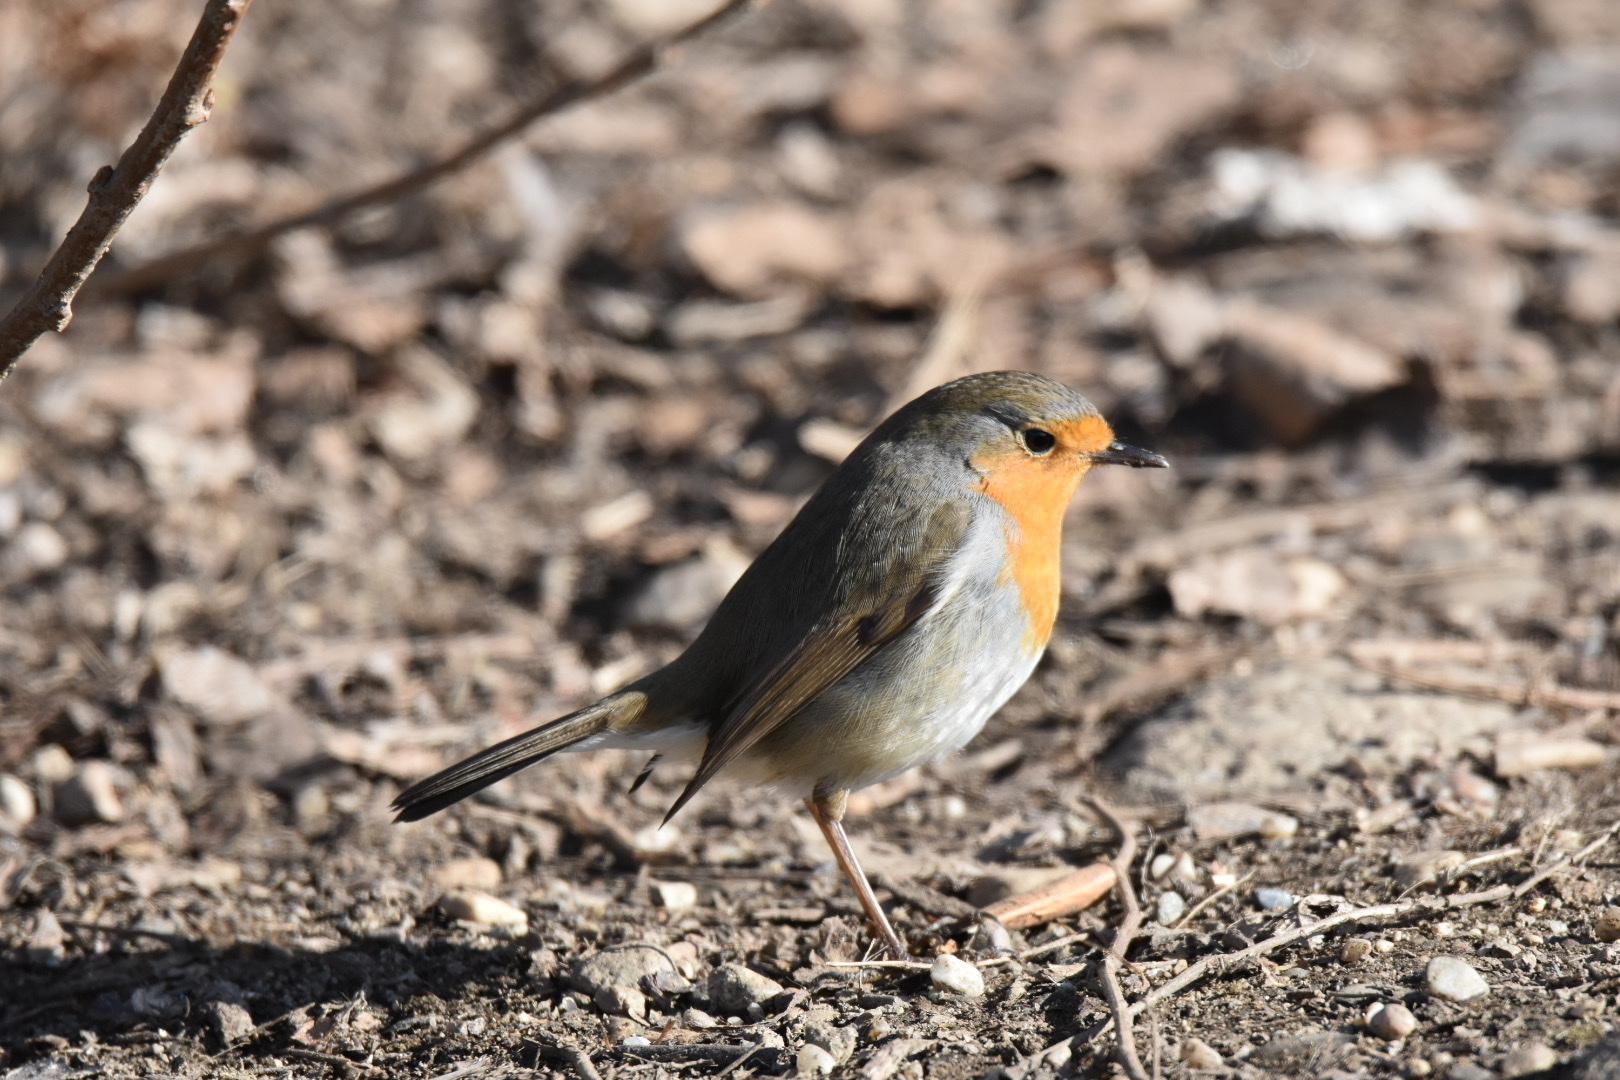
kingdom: Animalia
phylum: Chordata
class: Aves
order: Passeriformes
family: Muscicapidae
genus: Erithacus
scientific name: Erithacus rubecula
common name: European robin
